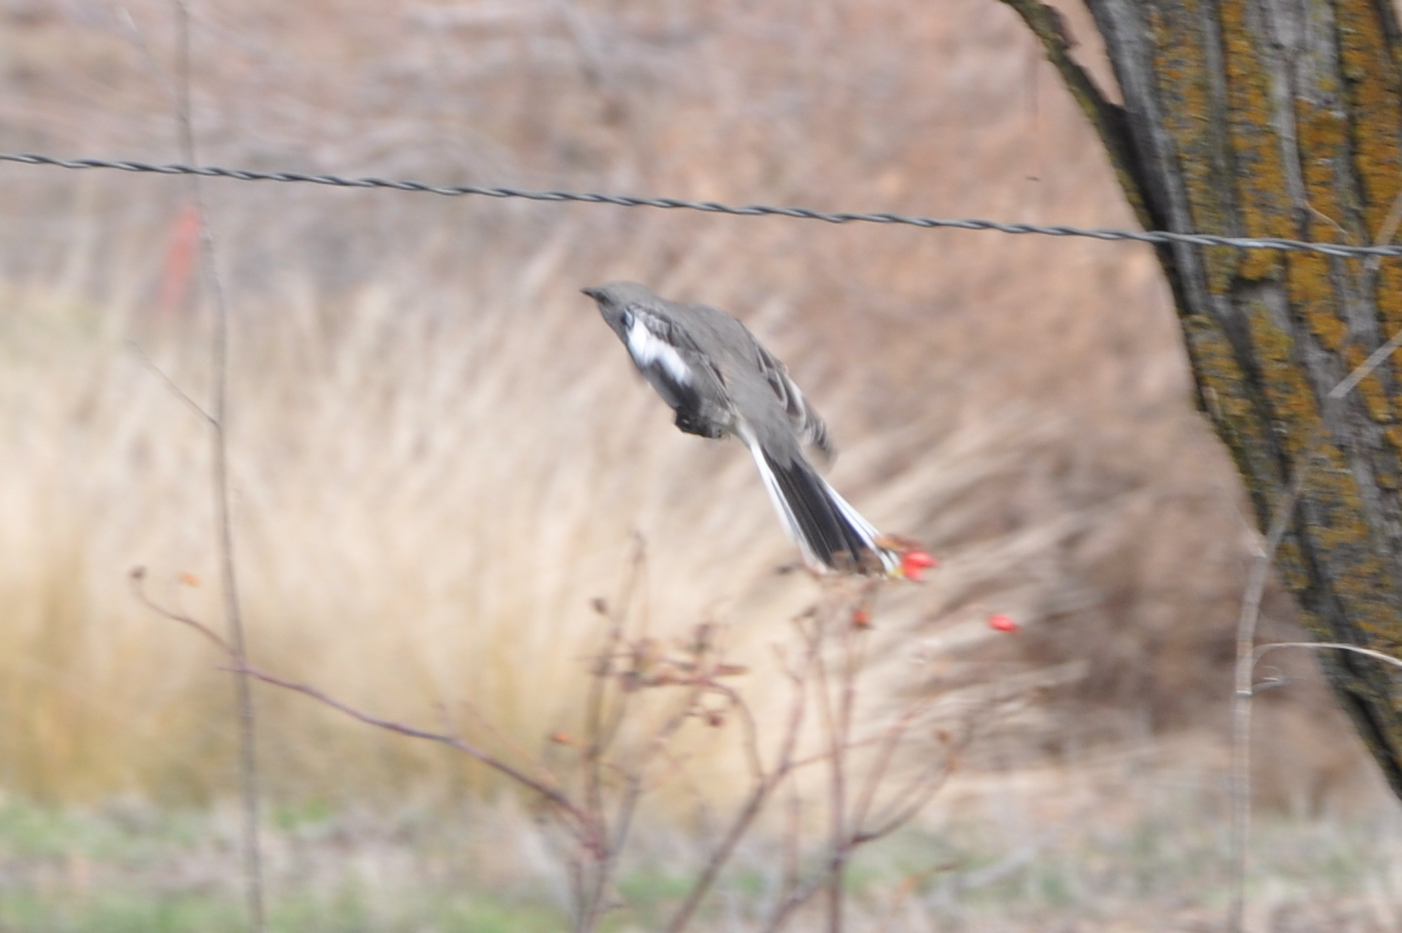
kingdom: Animalia
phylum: Chordata
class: Aves
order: Passeriformes
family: Mimidae
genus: Mimus
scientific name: Mimus polyglottos
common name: Northern mockingbird
